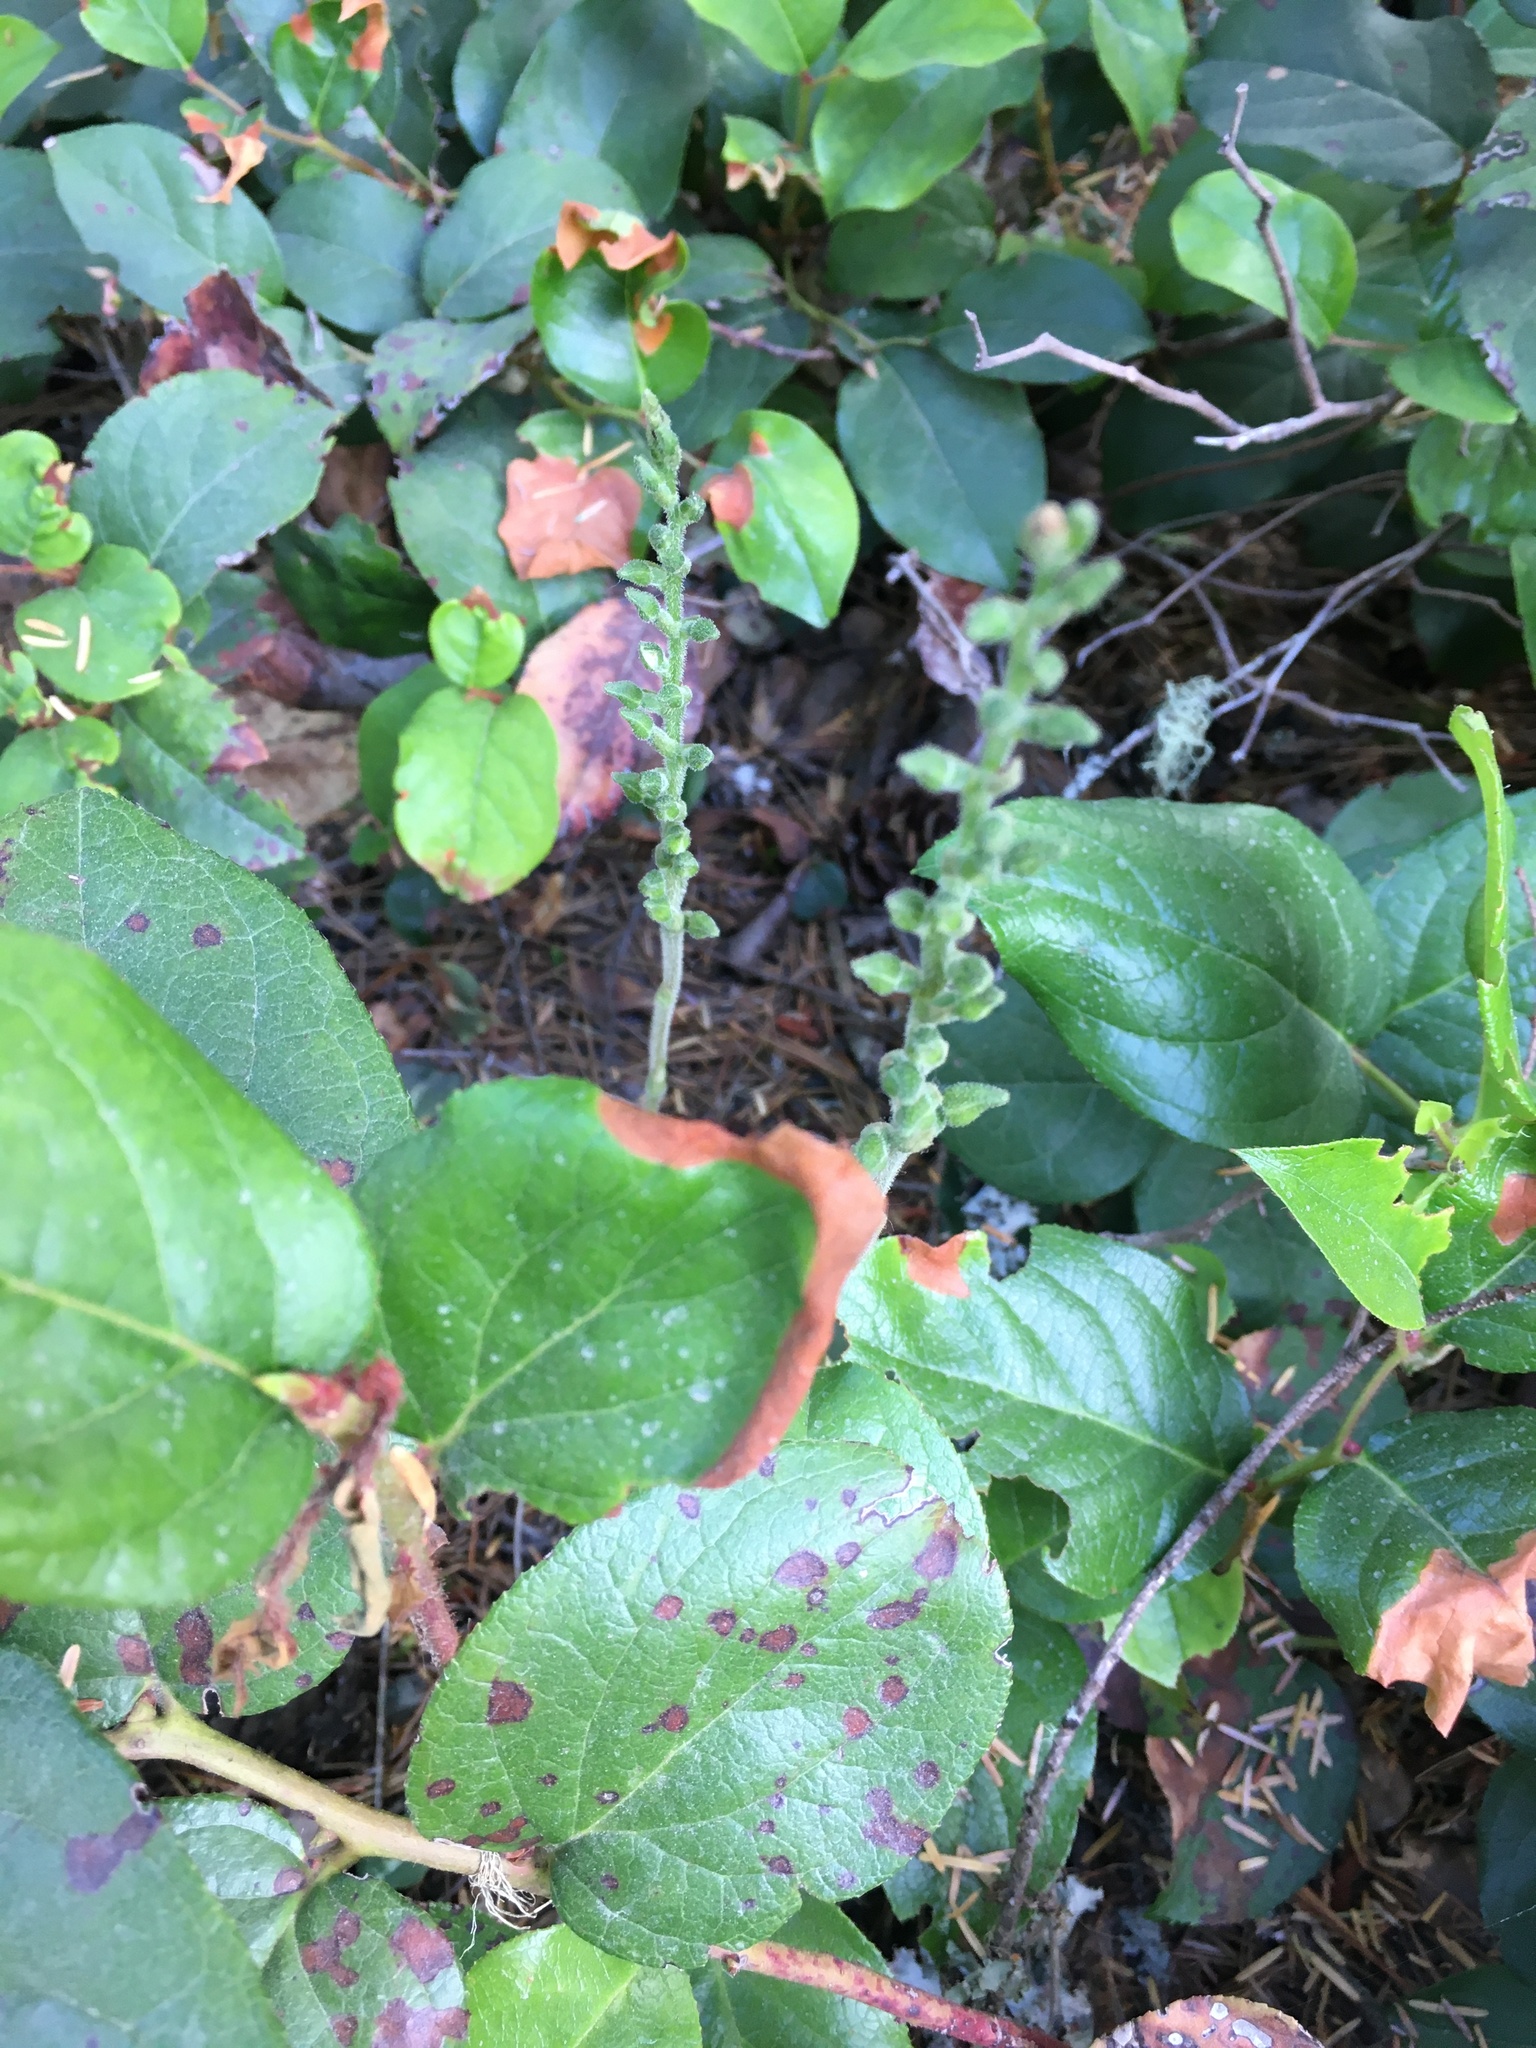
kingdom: Plantae
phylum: Tracheophyta
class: Liliopsida
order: Asparagales
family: Orchidaceae
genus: Goodyera
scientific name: Goodyera oblongifolia
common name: Giant rattlesnake-plantain
